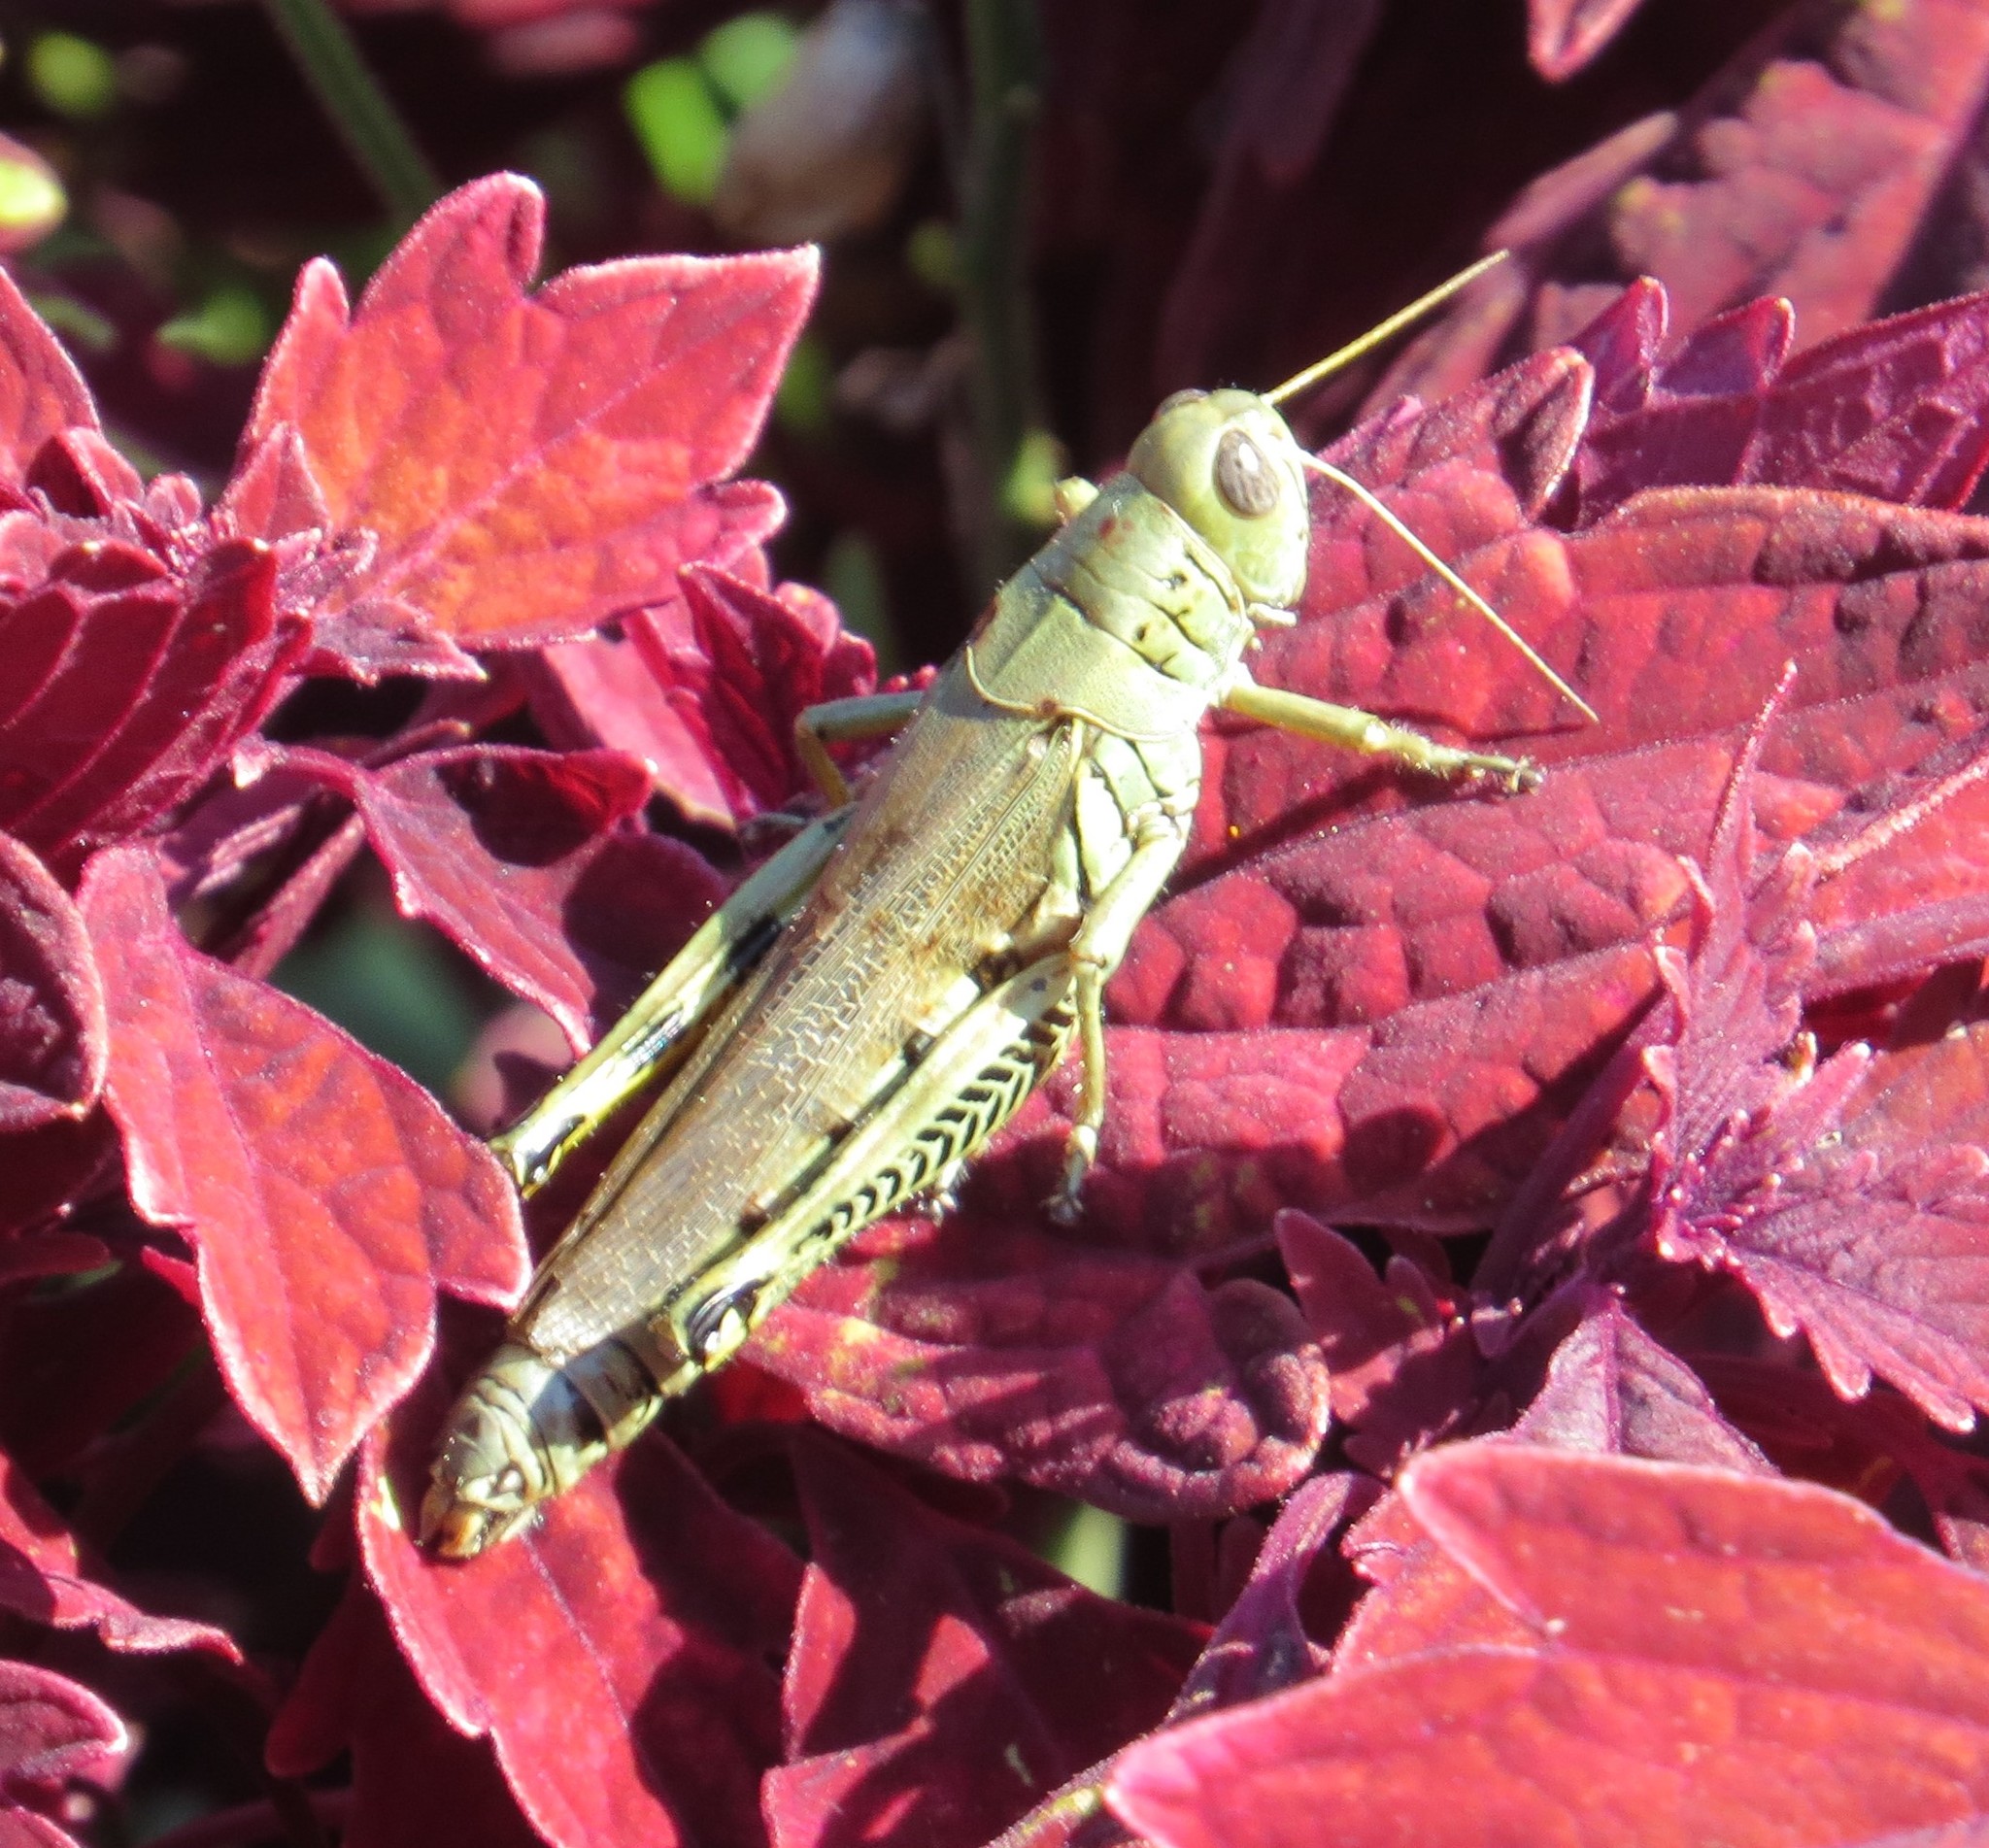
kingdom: Animalia
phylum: Arthropoda
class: Insecta
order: Orthoptera
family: Acrididae
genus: Melanoplus
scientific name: Melanoplus differentialis
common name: Differential grasshopper
